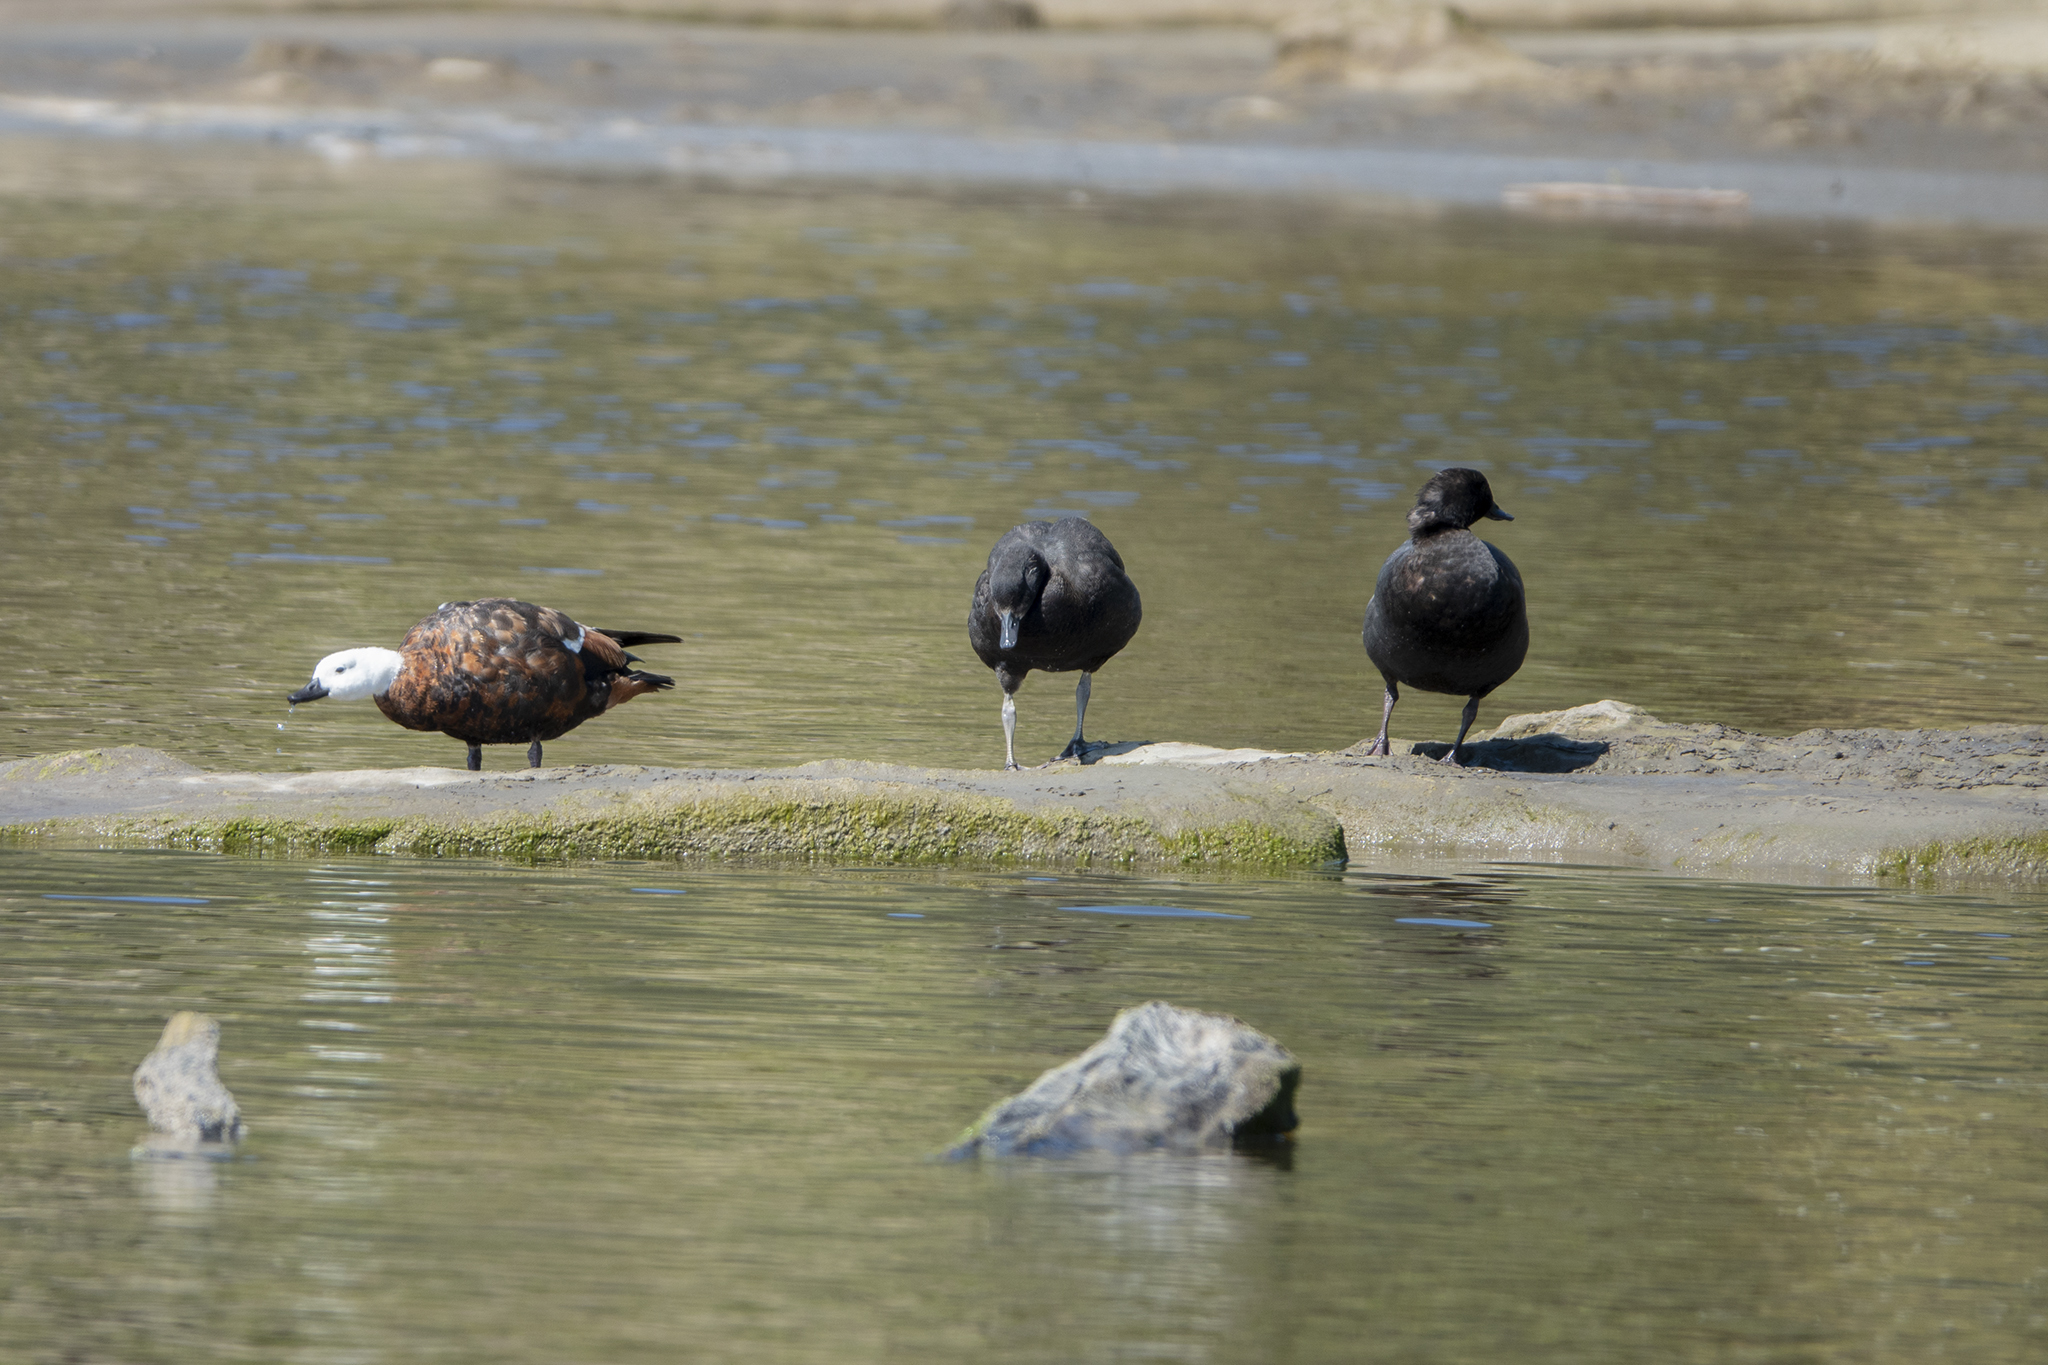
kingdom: Animalia
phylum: Chordata
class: Aves
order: Anseriformes
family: Anatidae
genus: Tadorna
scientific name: Tadorna variegata
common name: Paradise shelduck
